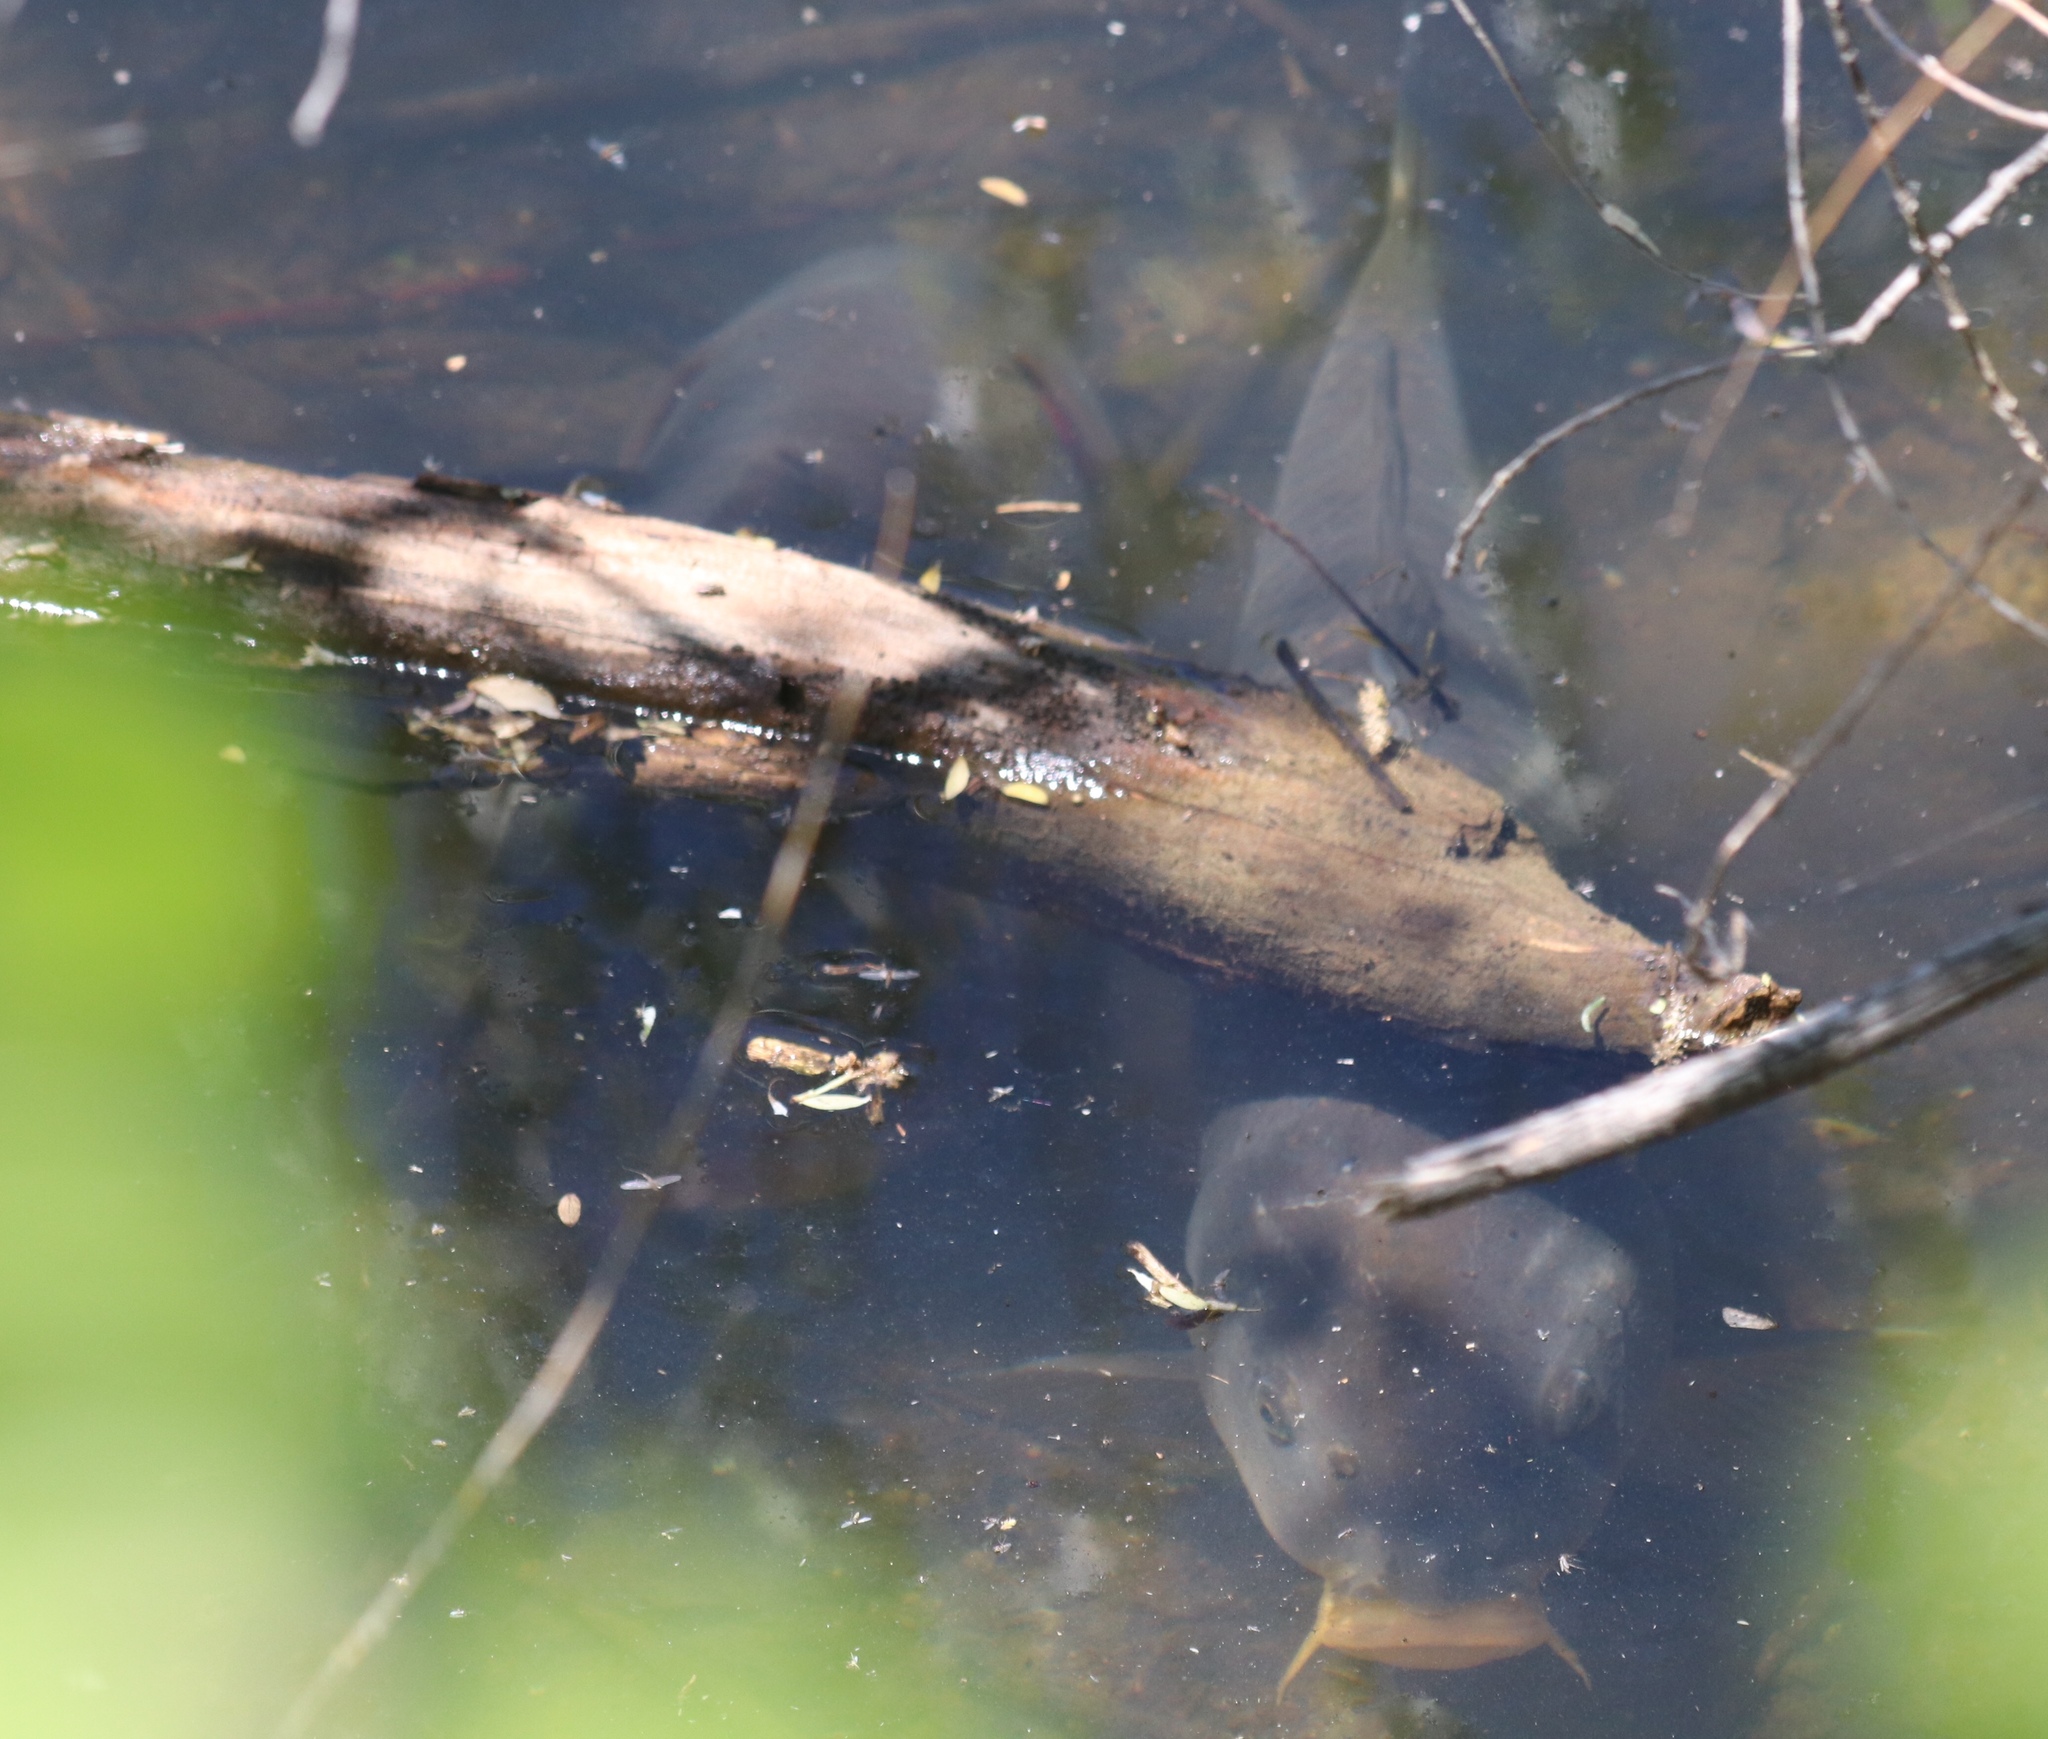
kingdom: Animalia
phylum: Chordata
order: Cypriniformes
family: Cyprinidae
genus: Cyprinus
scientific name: Cyprinus carpio
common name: Common carp
